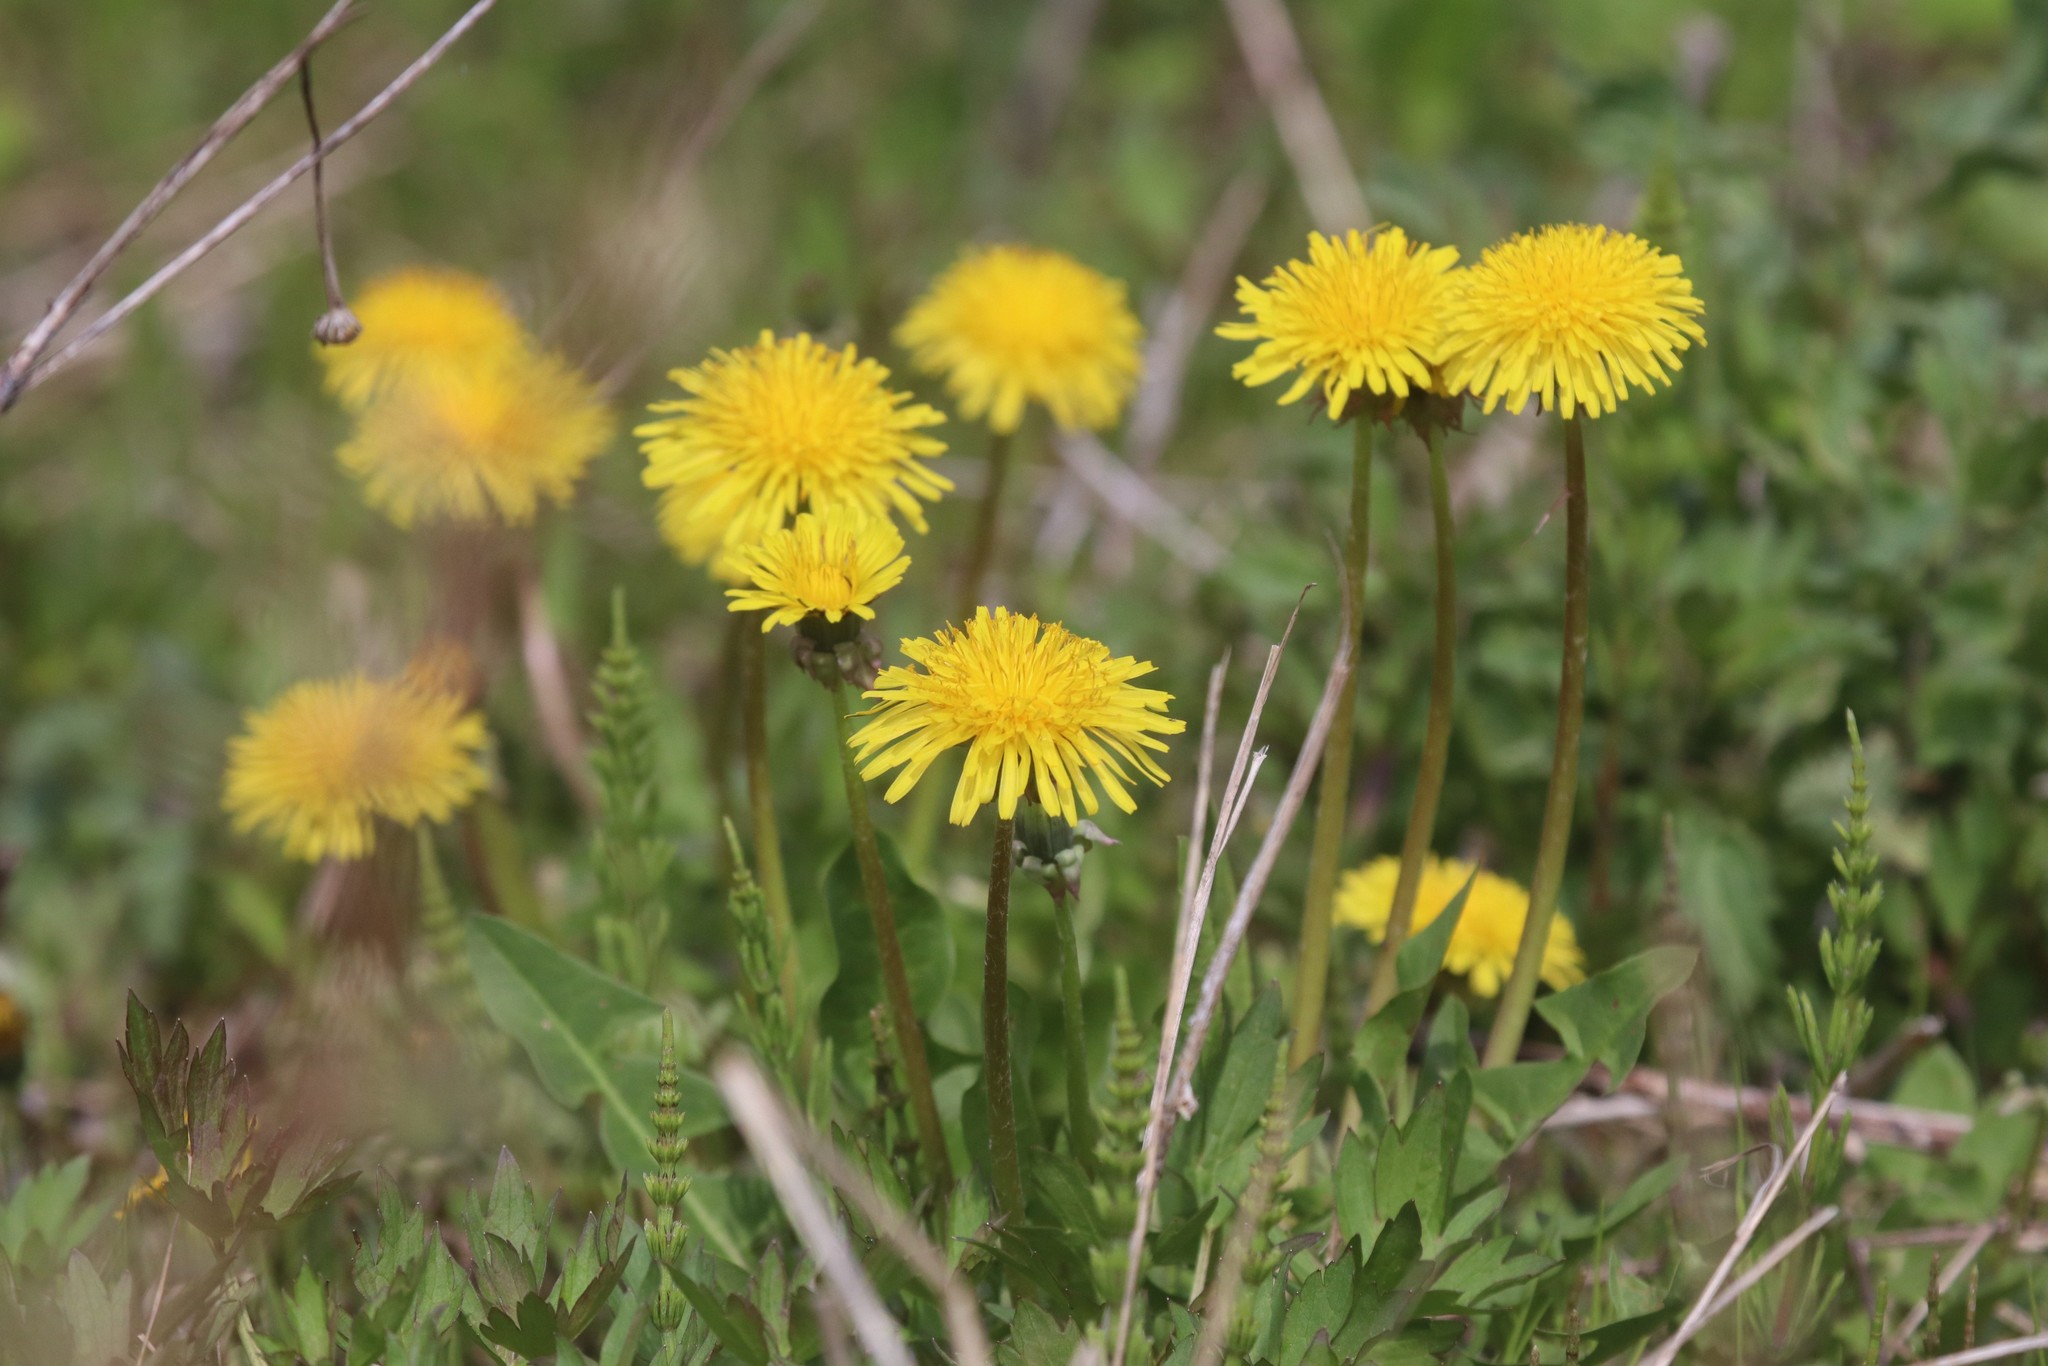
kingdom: Plantae
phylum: Tracheophyta
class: Magnoliopsida
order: Asterales
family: Asteraceae
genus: Taraxacum
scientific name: Taraxacum officinale
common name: Common dandelion
